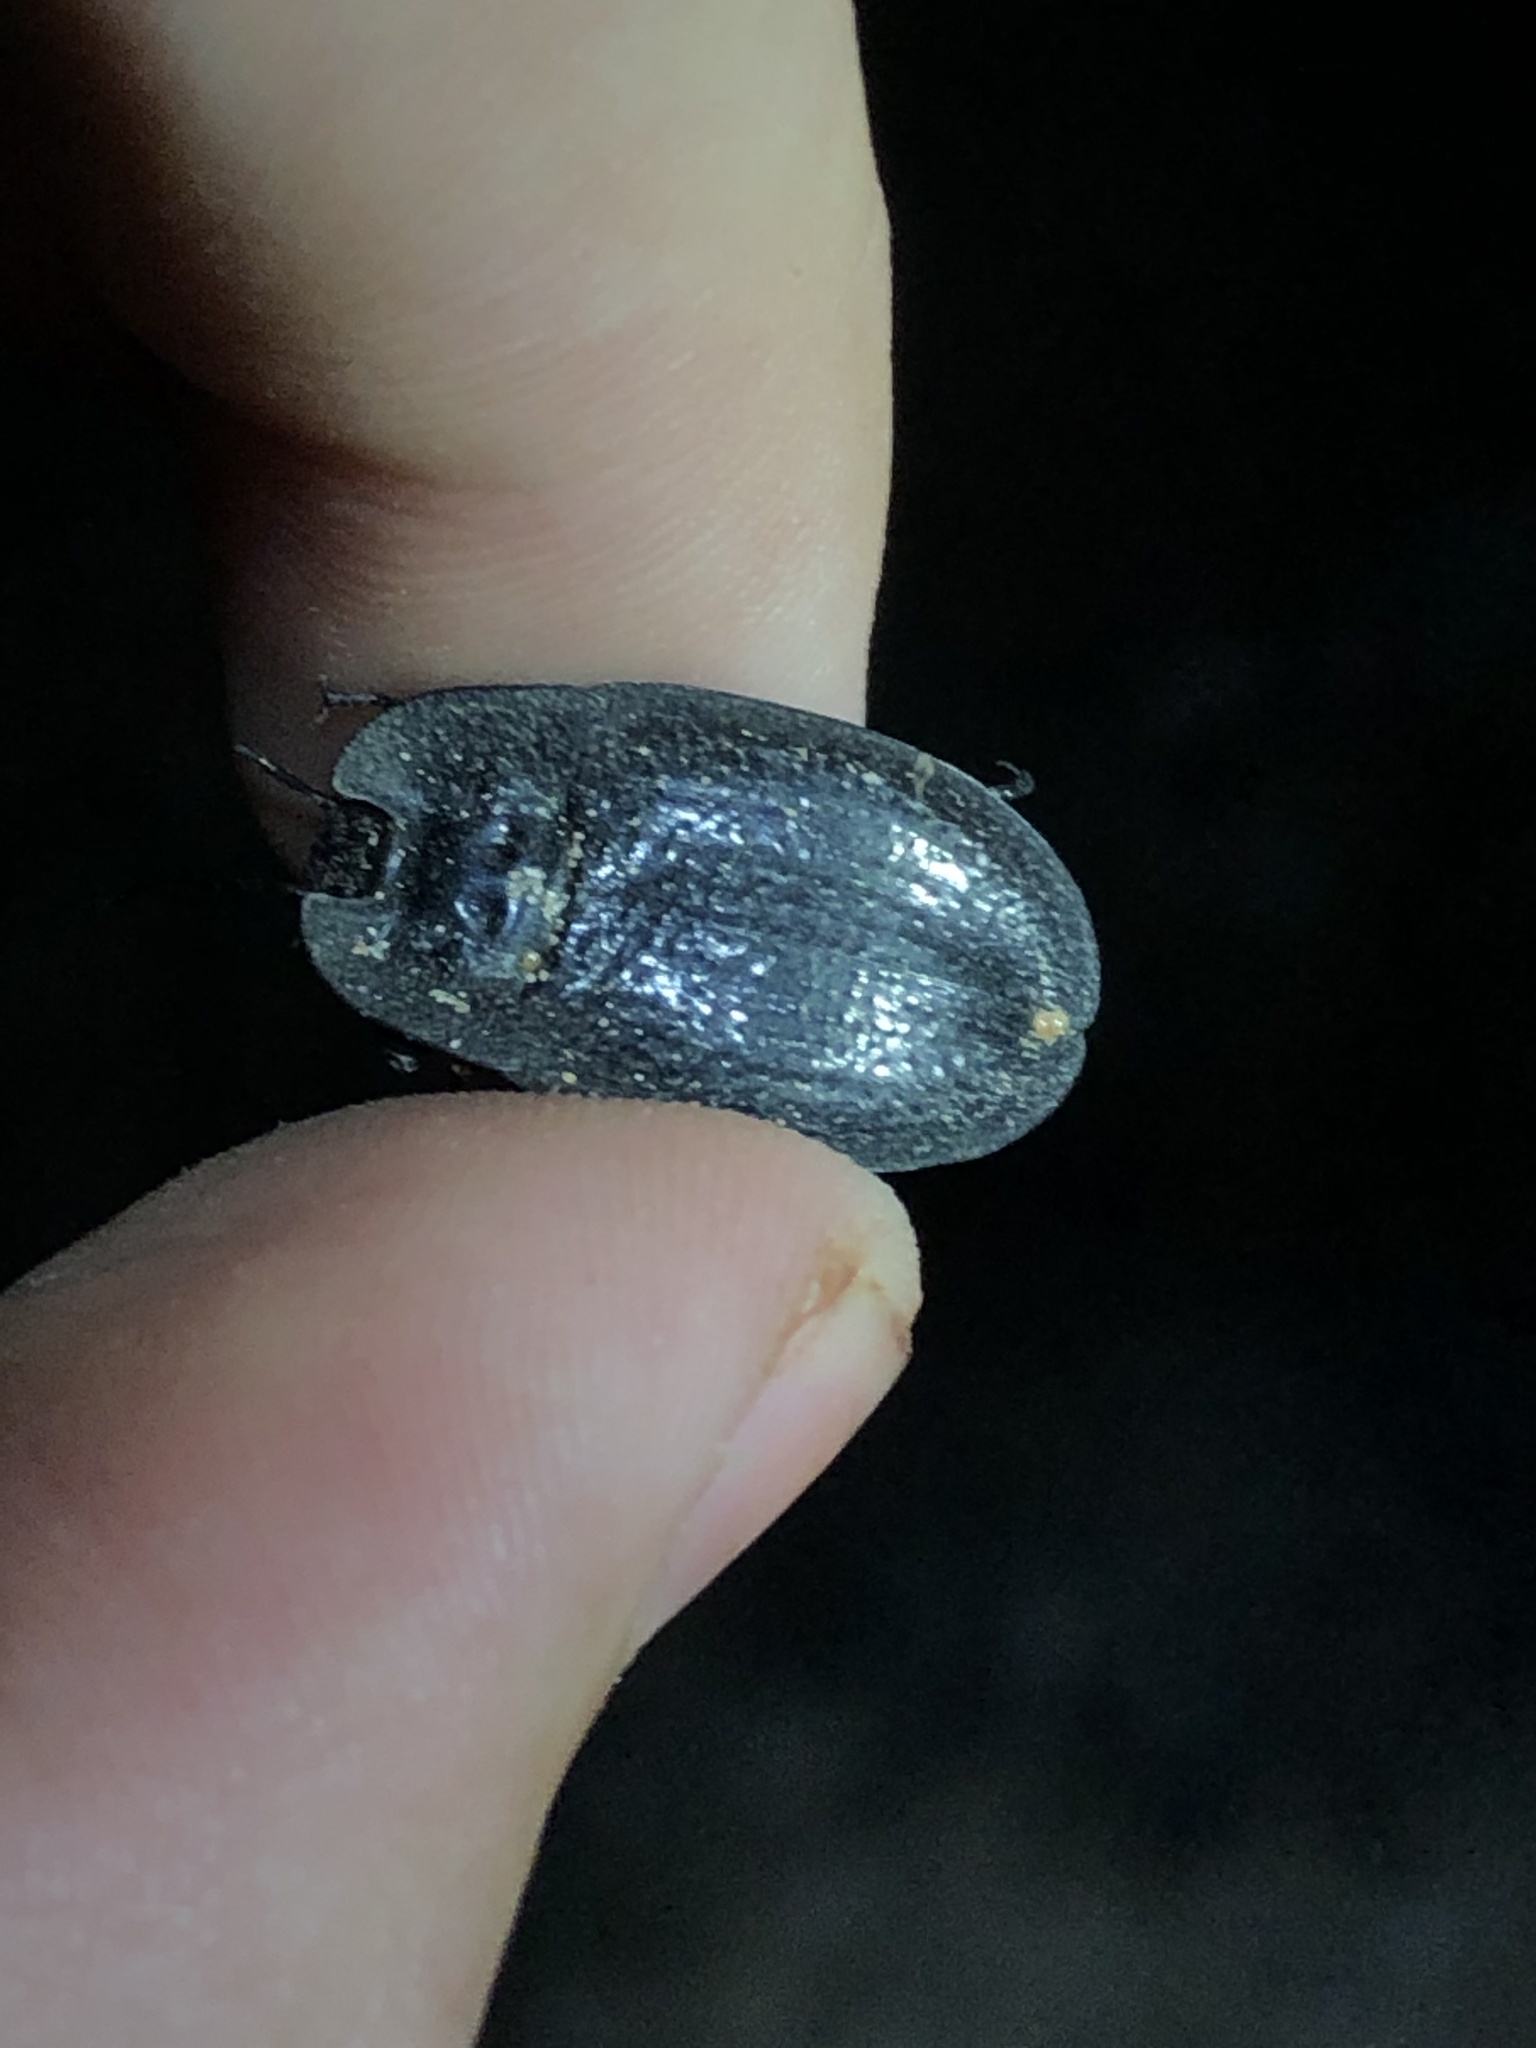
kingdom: Animalia
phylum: Arthropoda
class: Insecta
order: Coleoptera
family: Tenebrionidae
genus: Embaphion
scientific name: Embaphion muricatum
